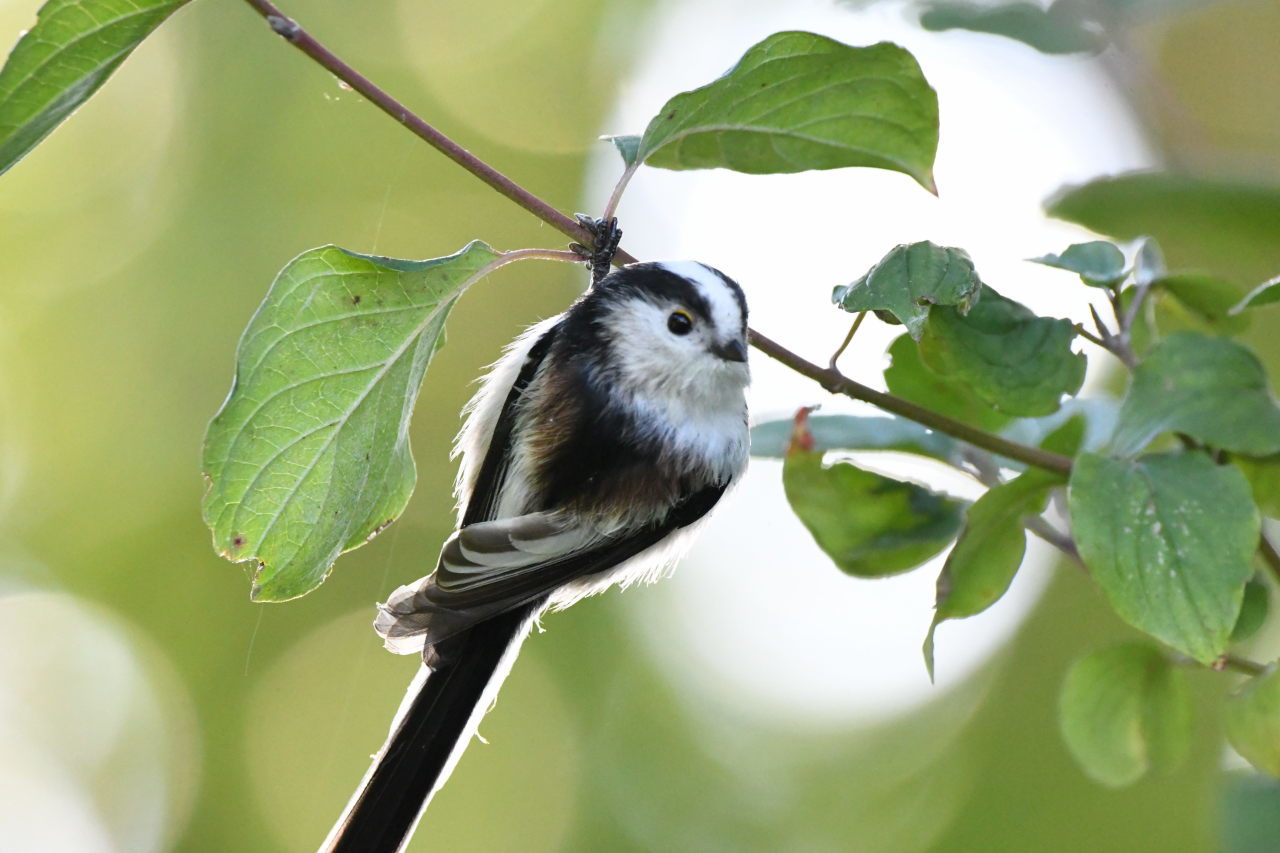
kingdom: Animalia
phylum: Chordata
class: Aves
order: Passeriformes
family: Aegithalidae
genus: Aegithalos
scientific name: Aegithalos caudatus
